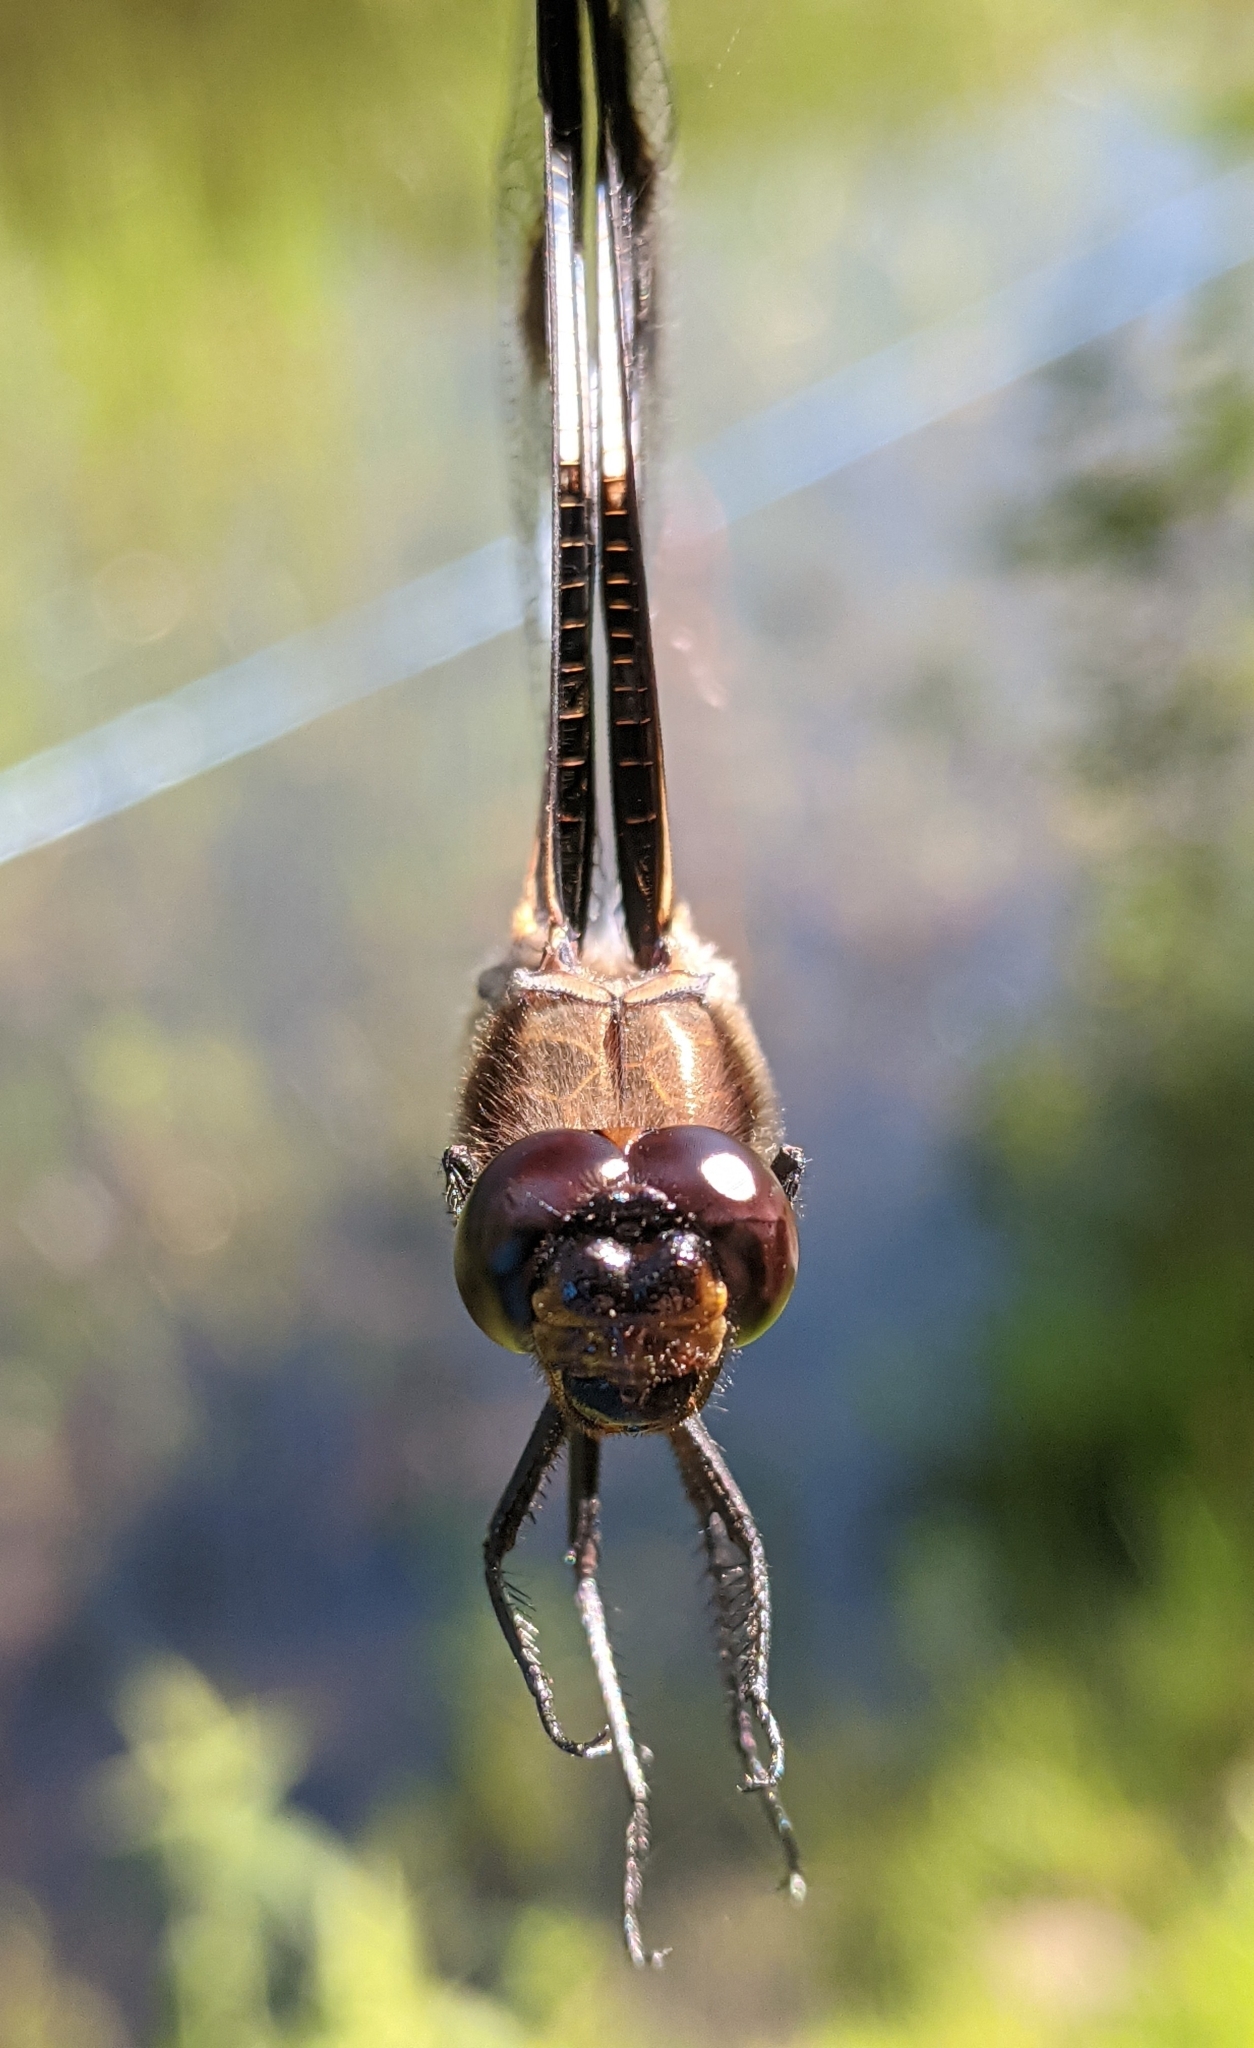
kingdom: Animalia
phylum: Arthropoda
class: Insecta
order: Odonata
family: Libellulidae
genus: Libellula
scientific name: Libellula pulchella
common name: Twelve-spotted skimmer
